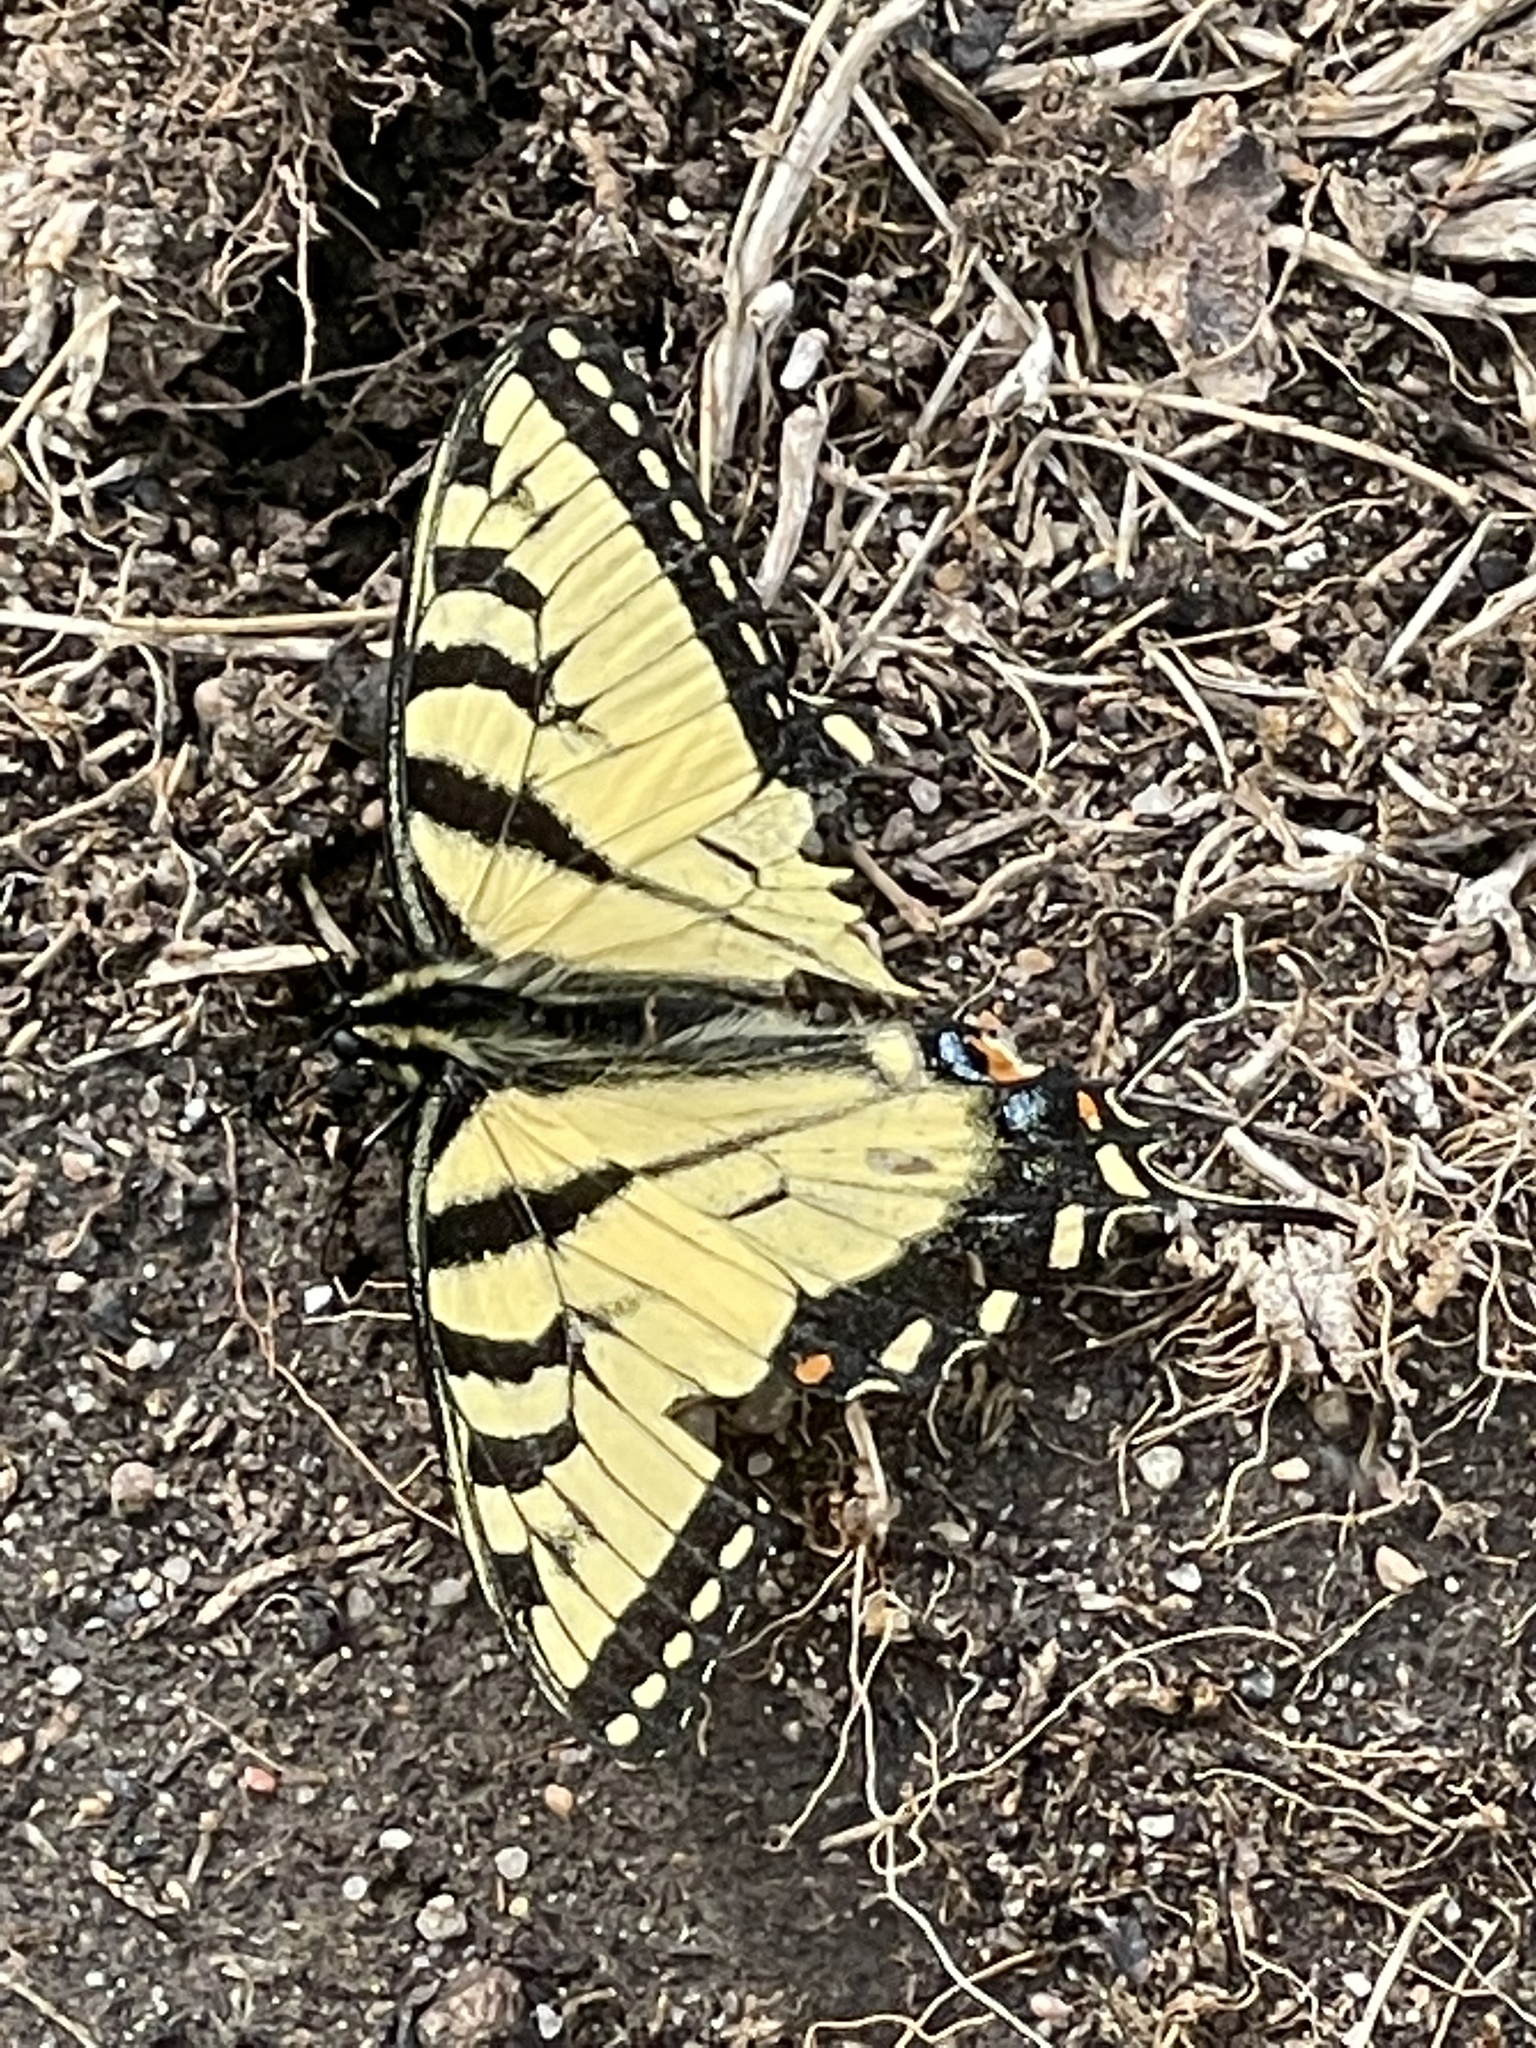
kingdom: Animalia
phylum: Arthropoda
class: Insecta
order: Lepidoptera
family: Papilionidae
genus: Papilio
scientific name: Papilio glaucus
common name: Tiger swallowtail
